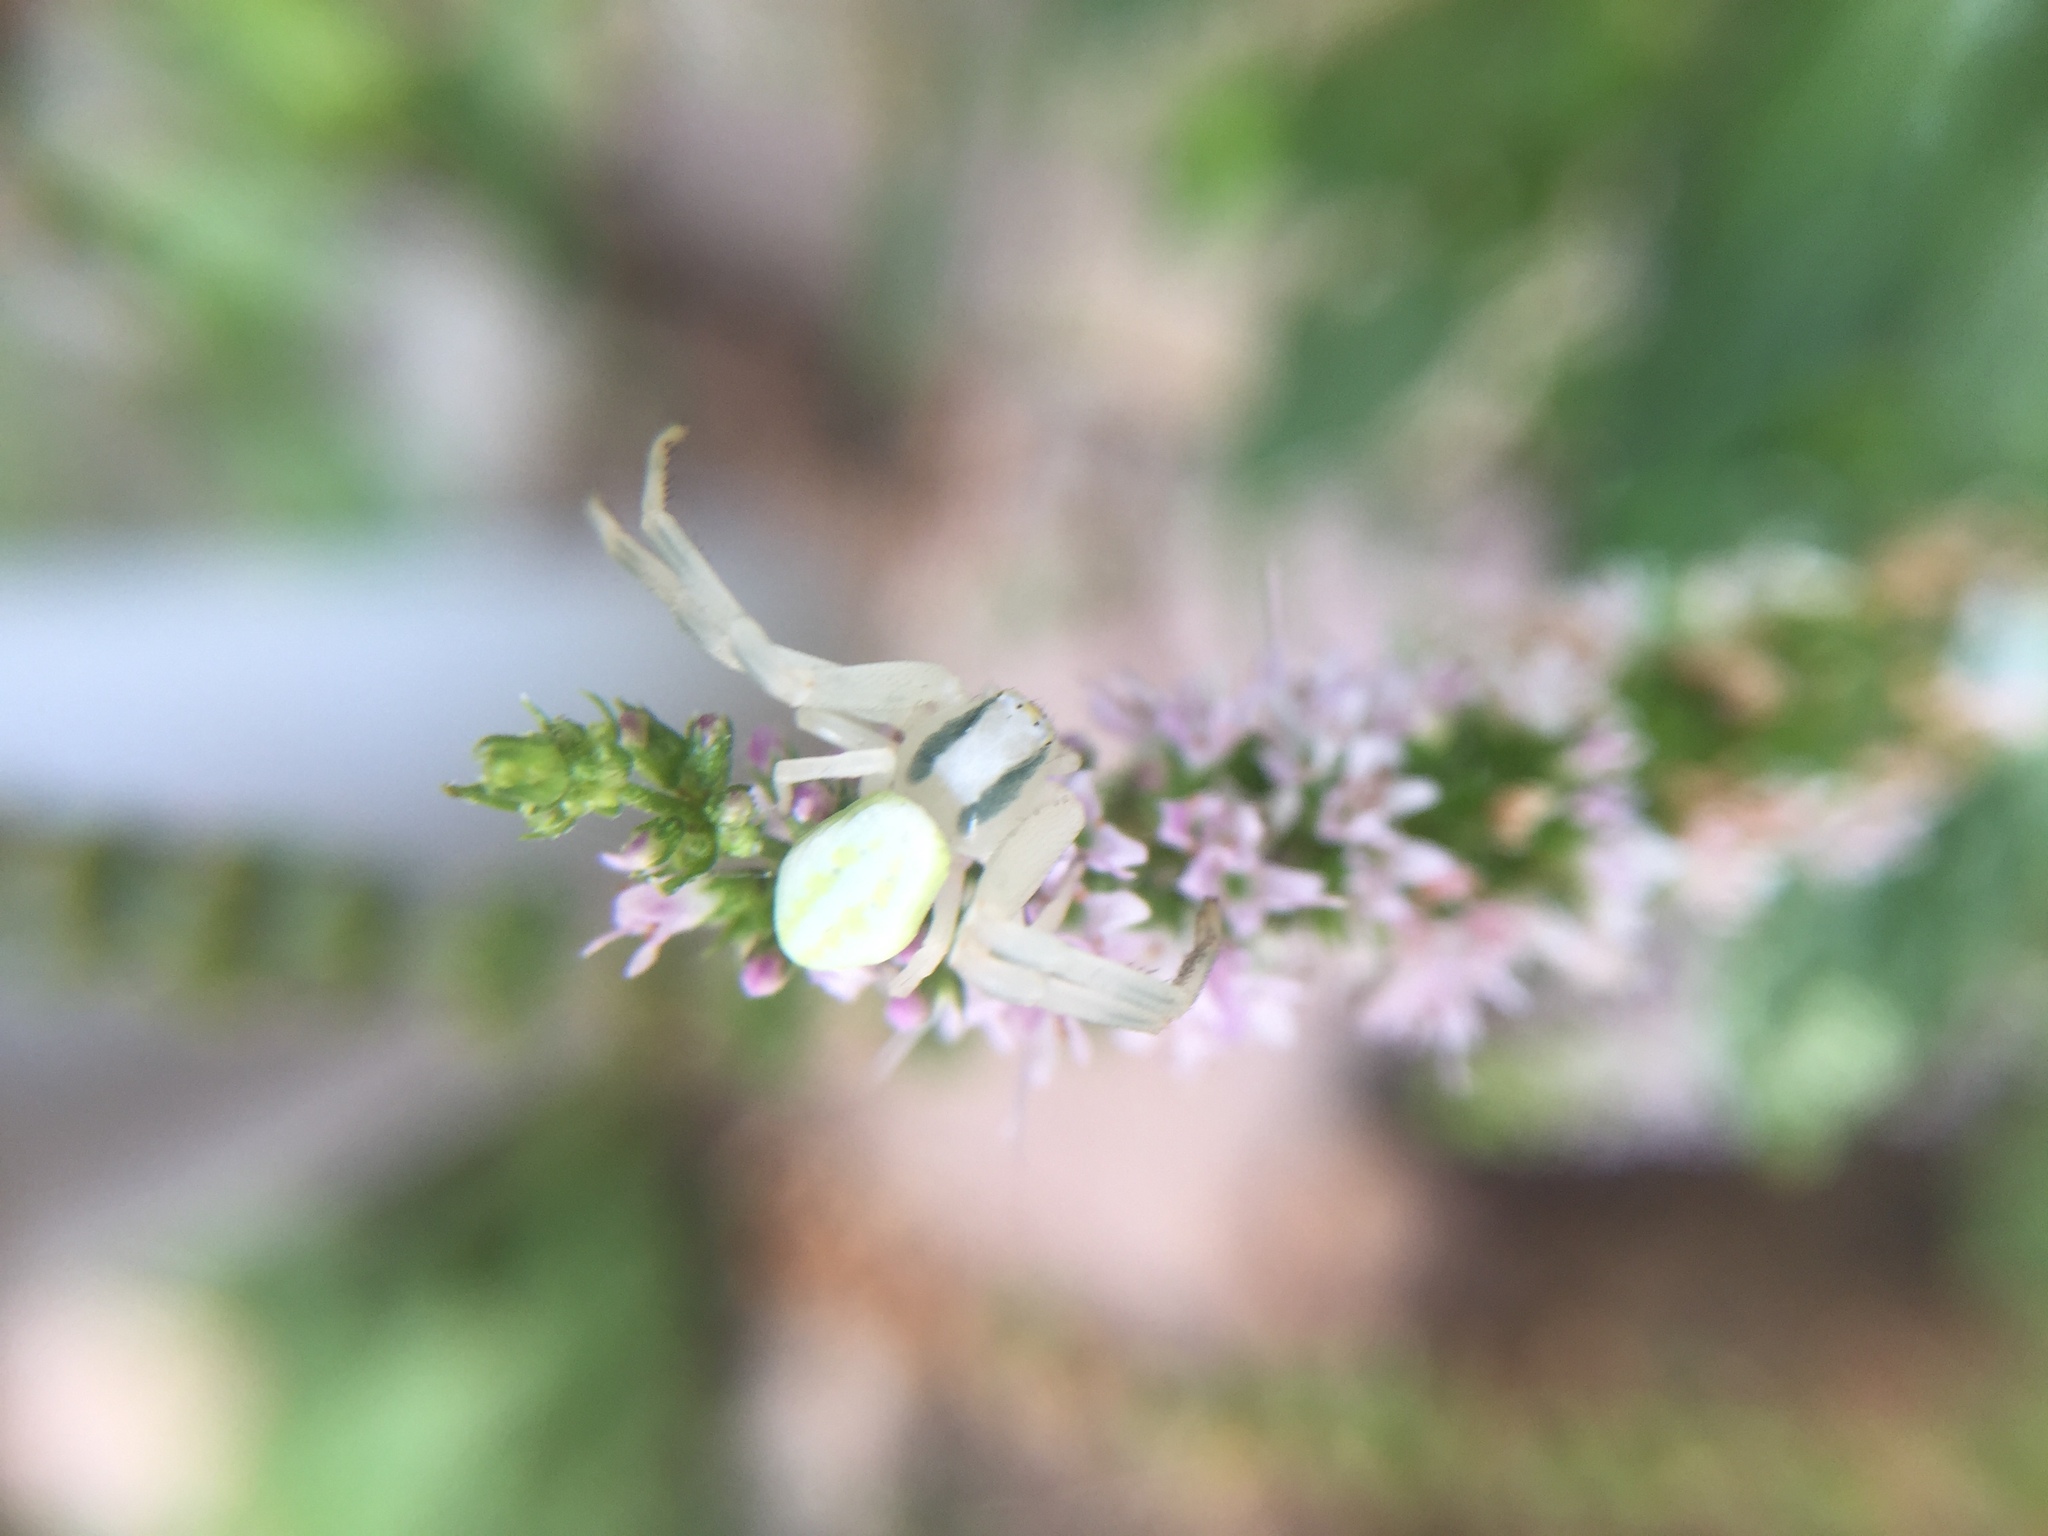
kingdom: Animalia
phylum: Arthropoda
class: Arachnida
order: Araneae
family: Thomisidae
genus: Misumena
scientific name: Misumena vatia
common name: Goldenrod crab spider
